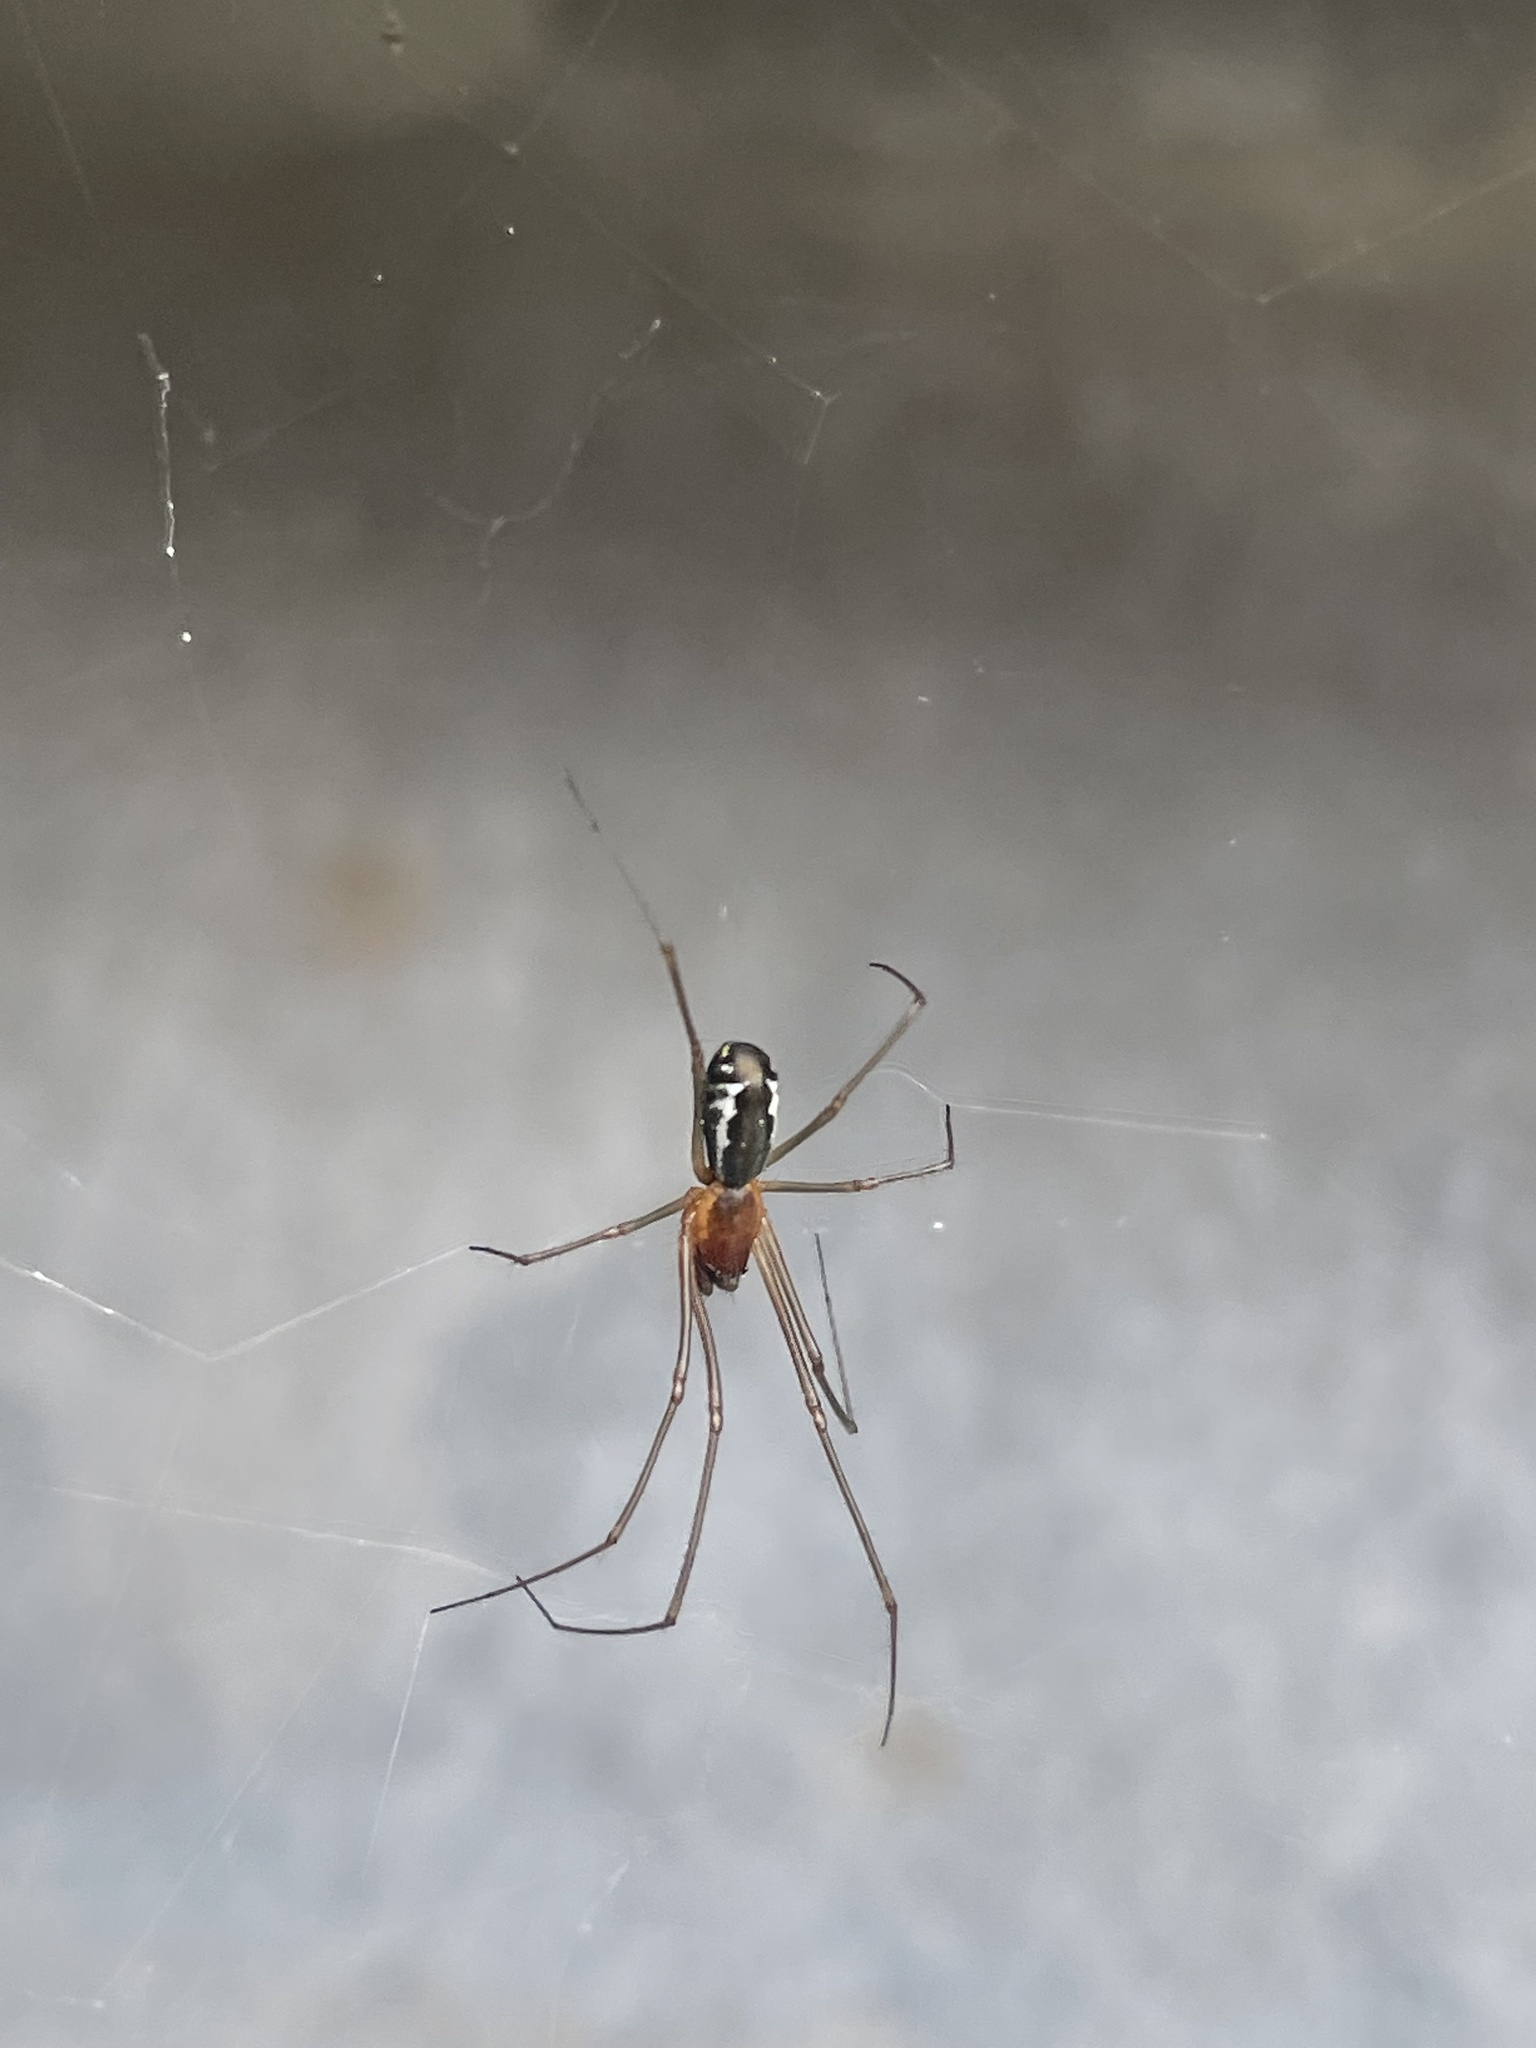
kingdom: Animalia
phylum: Arthropoda
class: Arachnida
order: Araneae
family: Linyphiidae
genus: Neriene
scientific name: Neriene radiata
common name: Filmy dome spider
